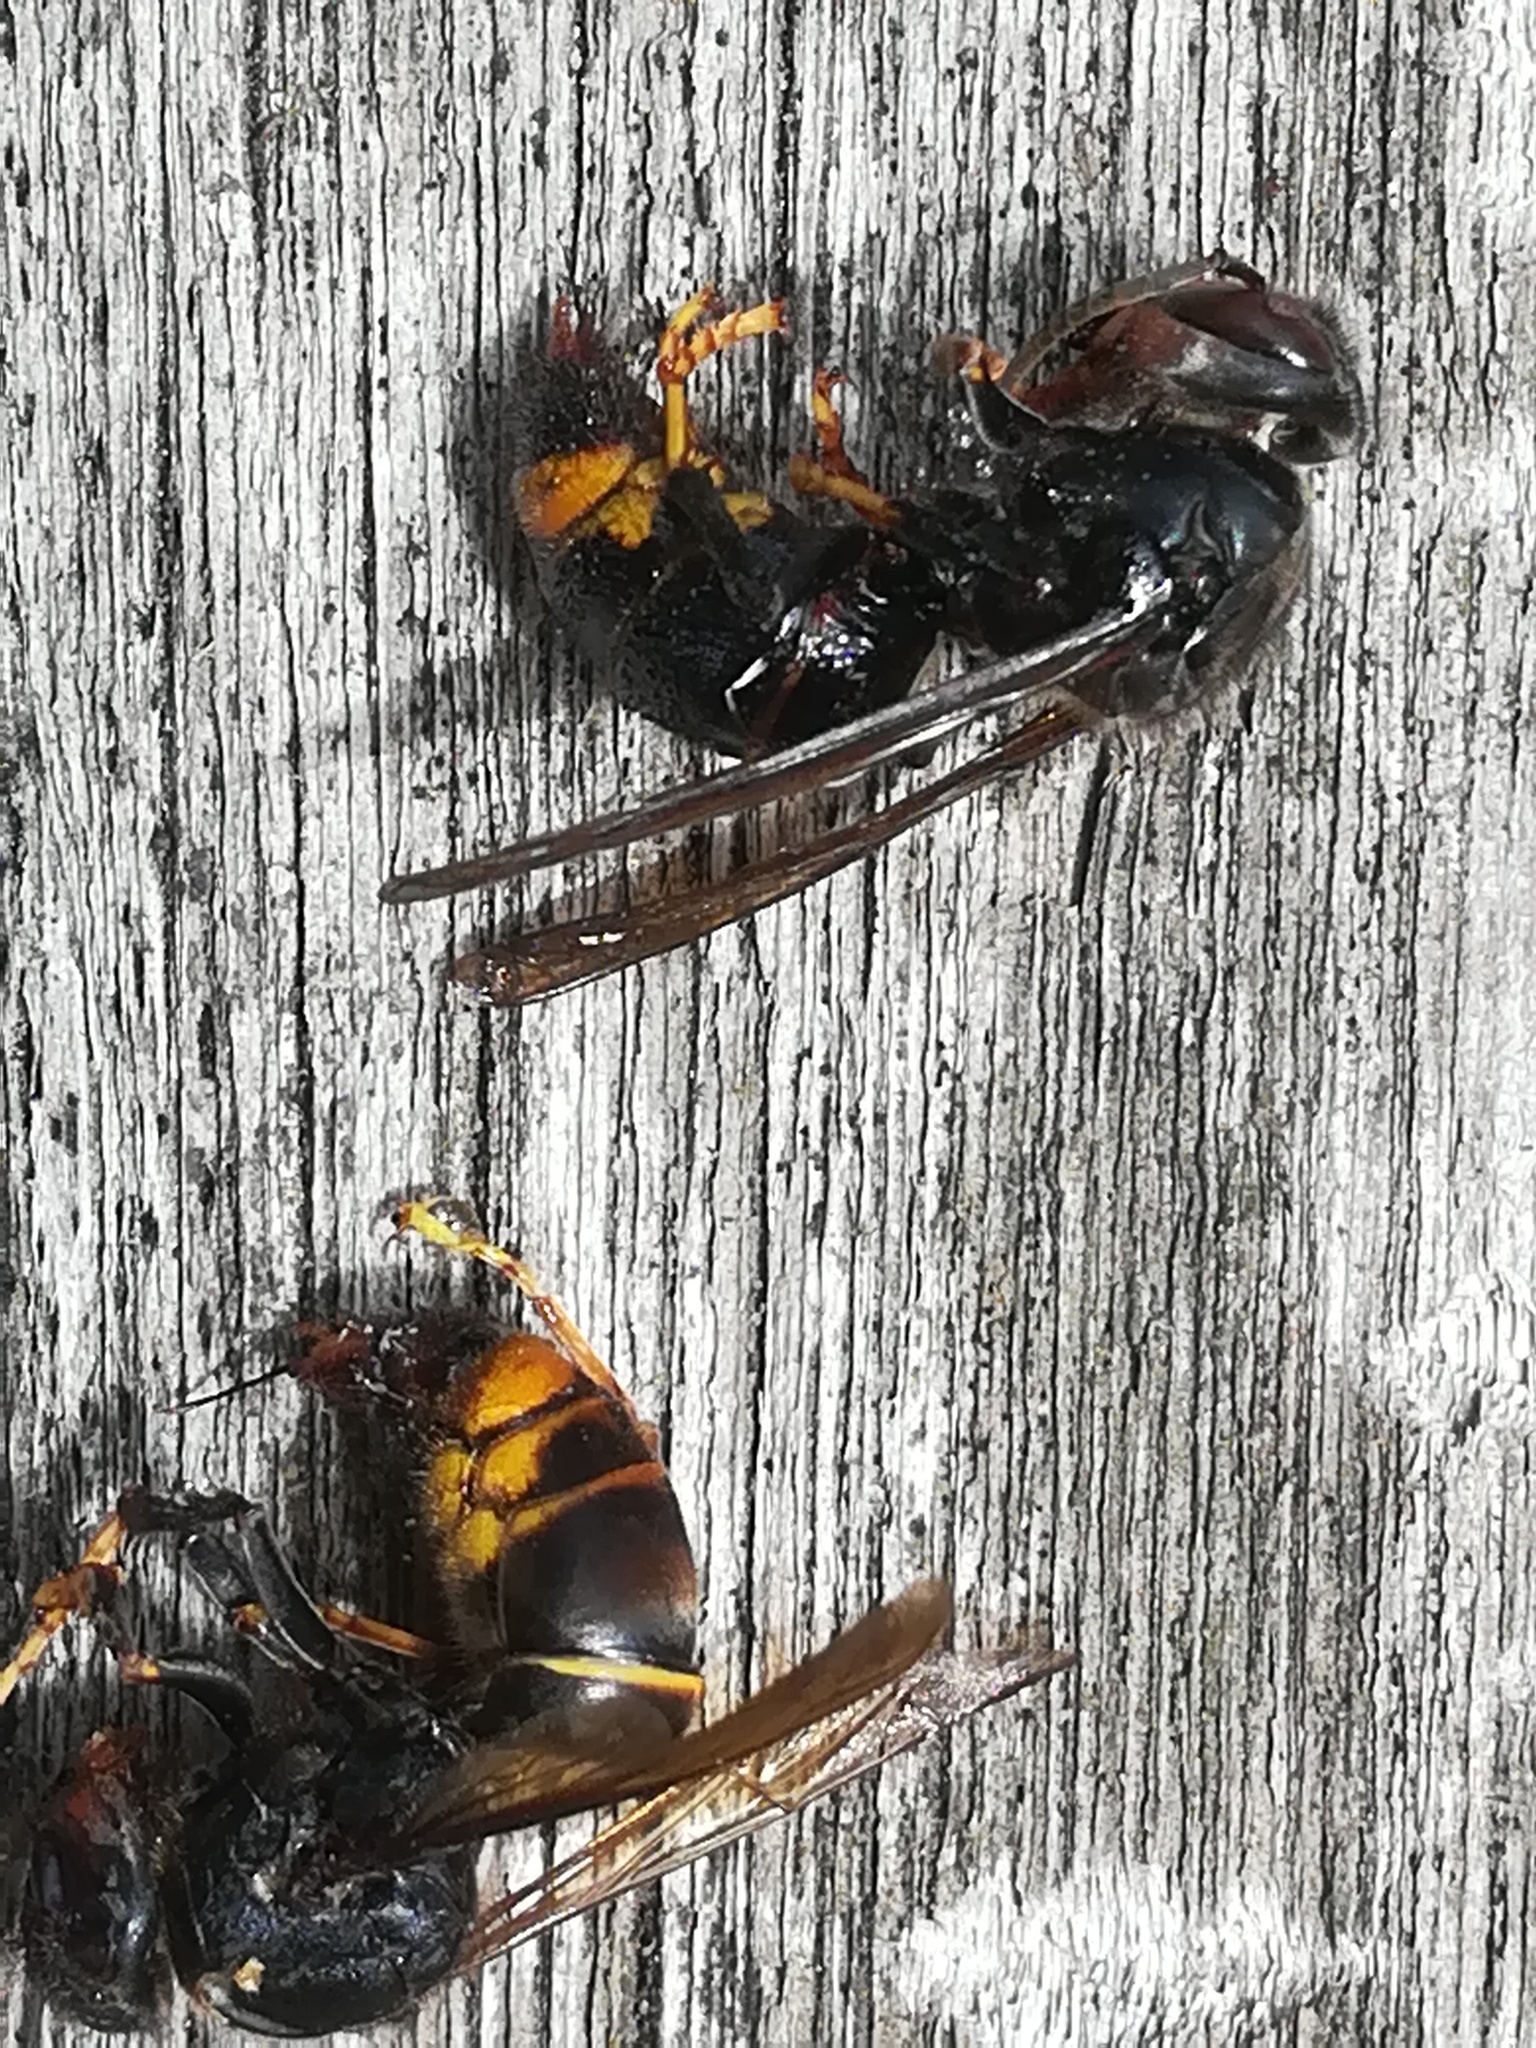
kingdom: Animalia
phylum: Arthropoda
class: Insecta
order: Hymenoptera
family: Vespidae
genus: Vespa
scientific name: Vespa velutina
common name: Asian hornet
